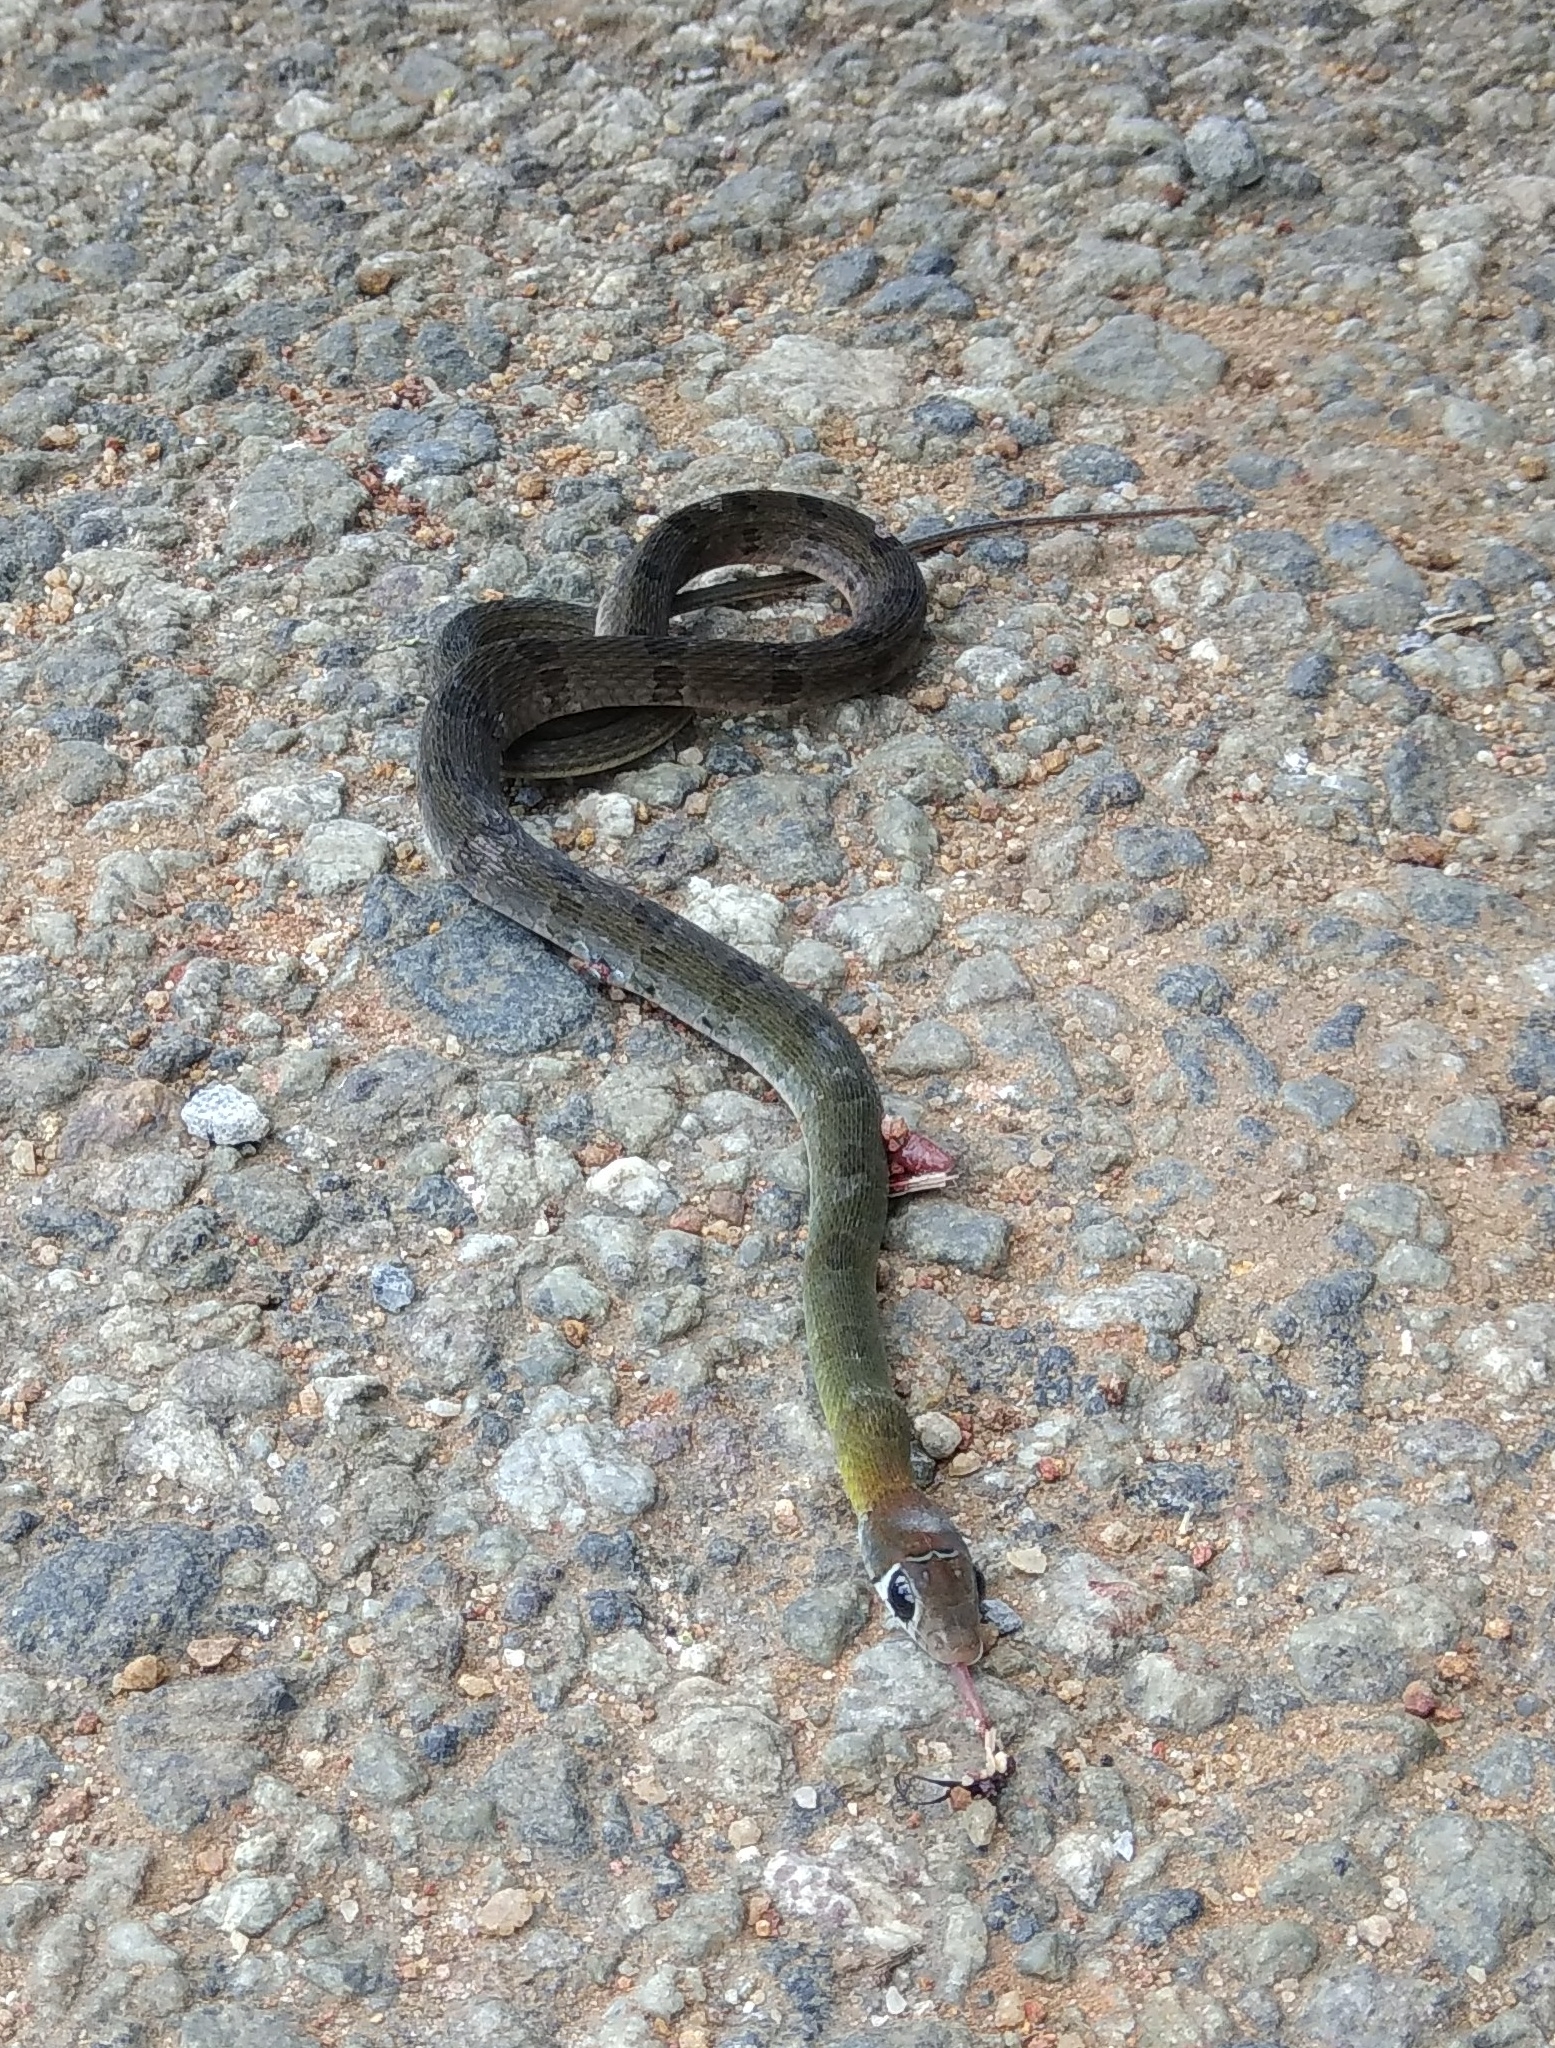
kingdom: Animalia
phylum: Chordata
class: Squamata
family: Colubridae
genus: Hebius
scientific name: Hebius monticola
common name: Wynad keelback
